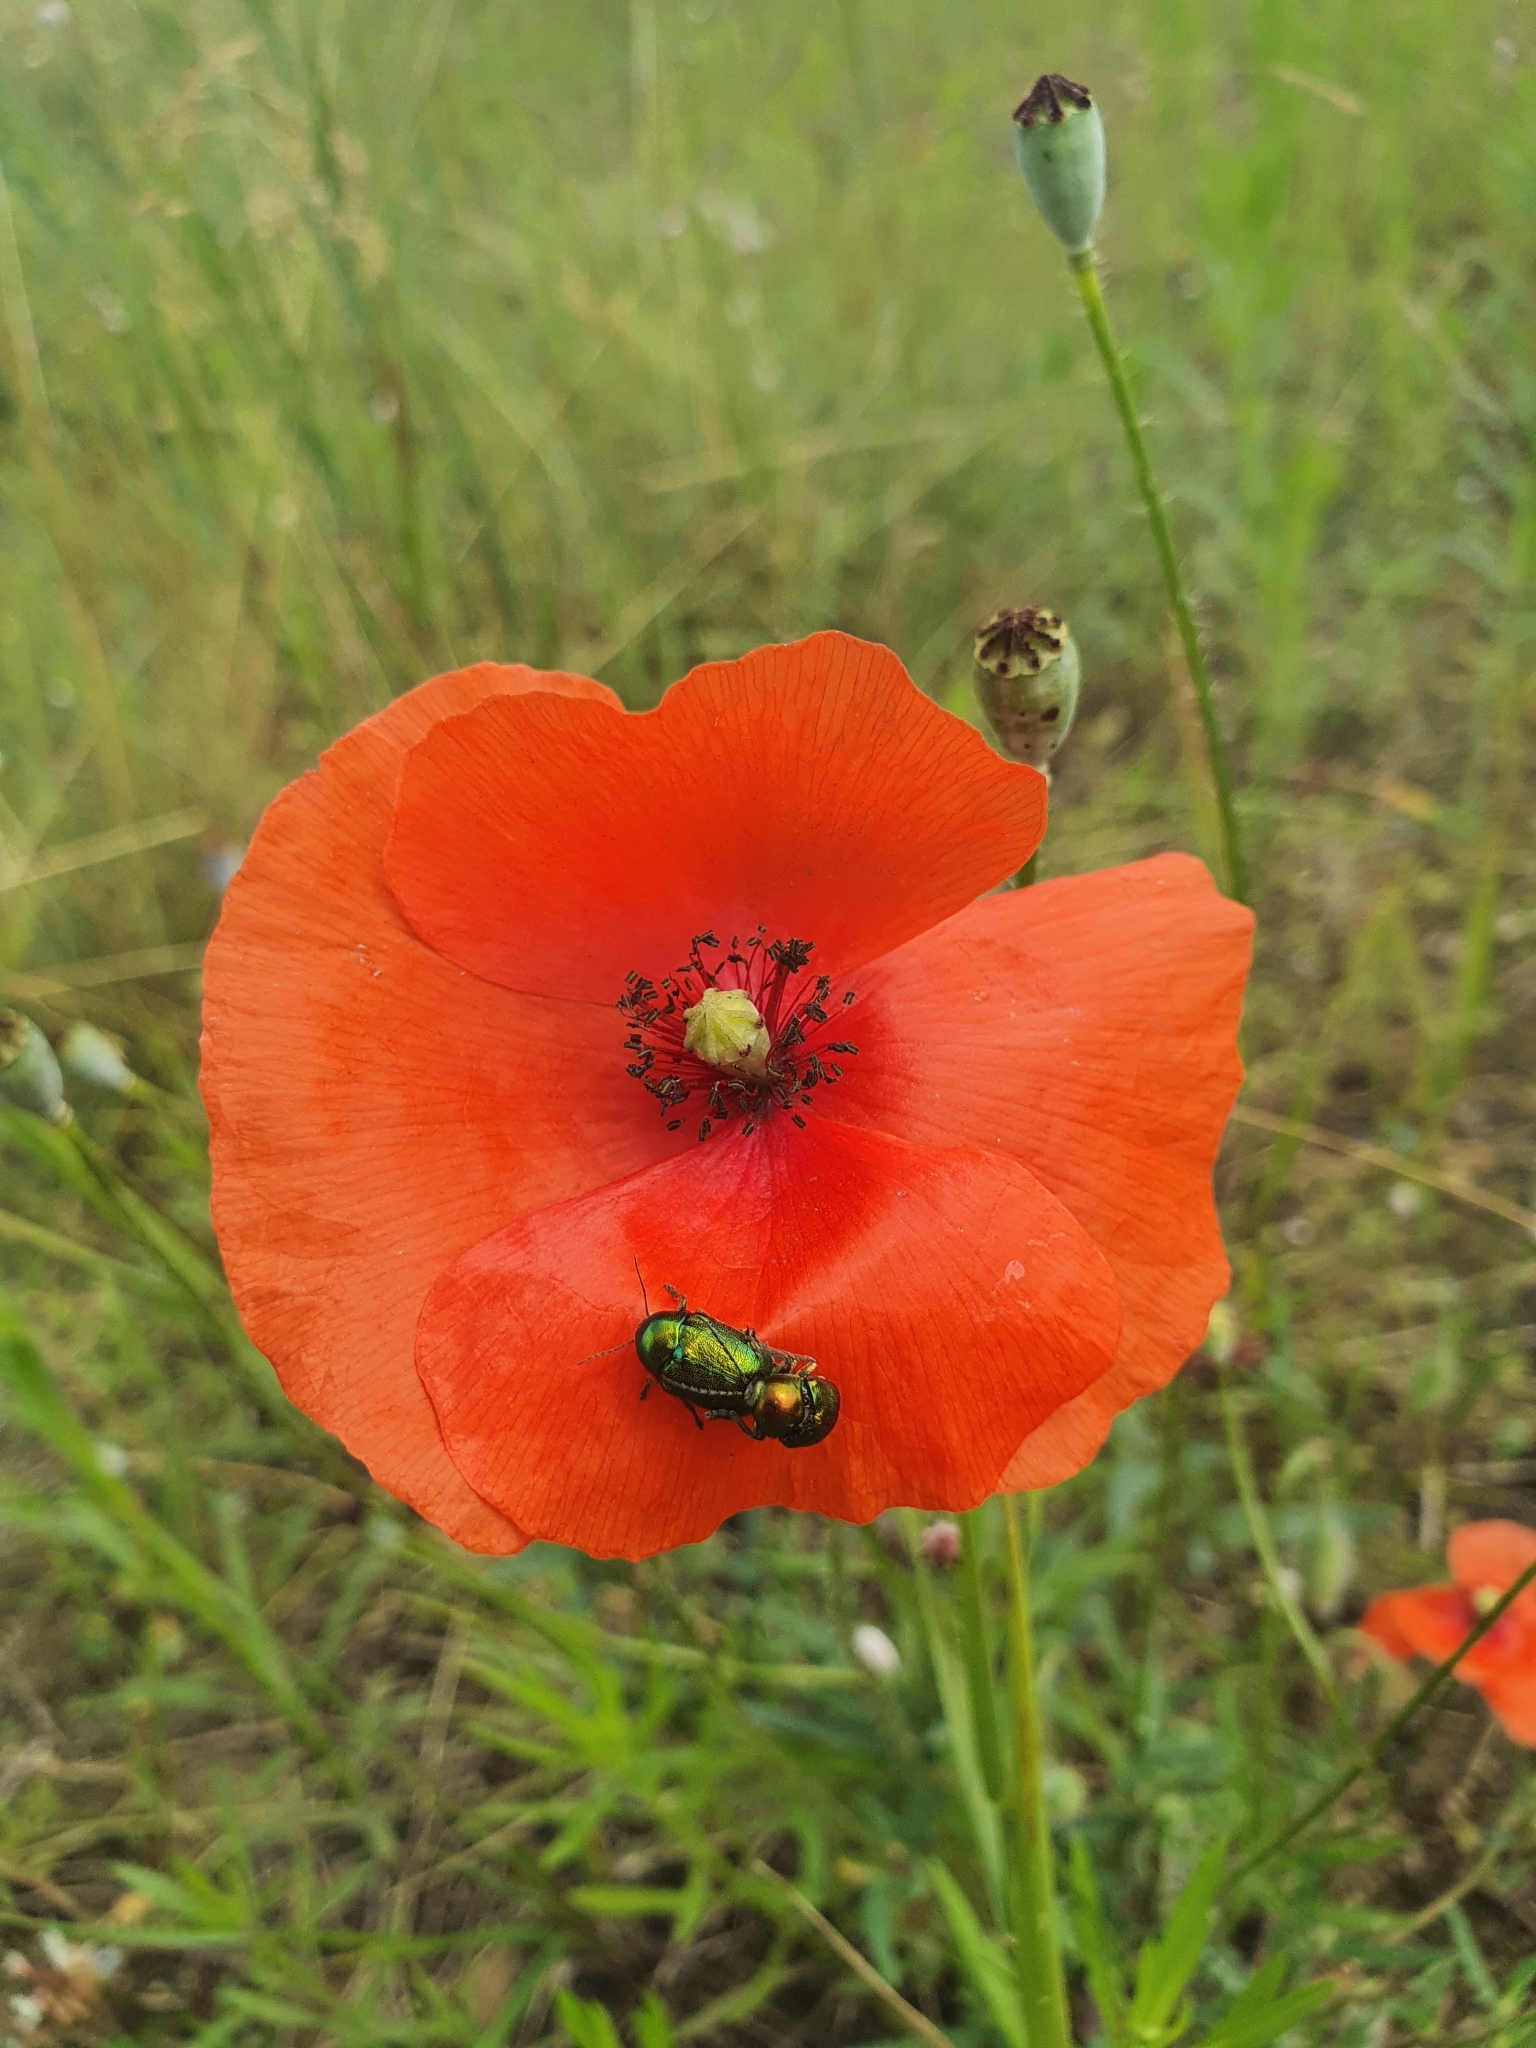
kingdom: Plantae
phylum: Tracheophyta
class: Magnoliopsida
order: Ranunculales
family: Papaveraceae
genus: Papaver
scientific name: Papaver rhoeas
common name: Corn poppy
